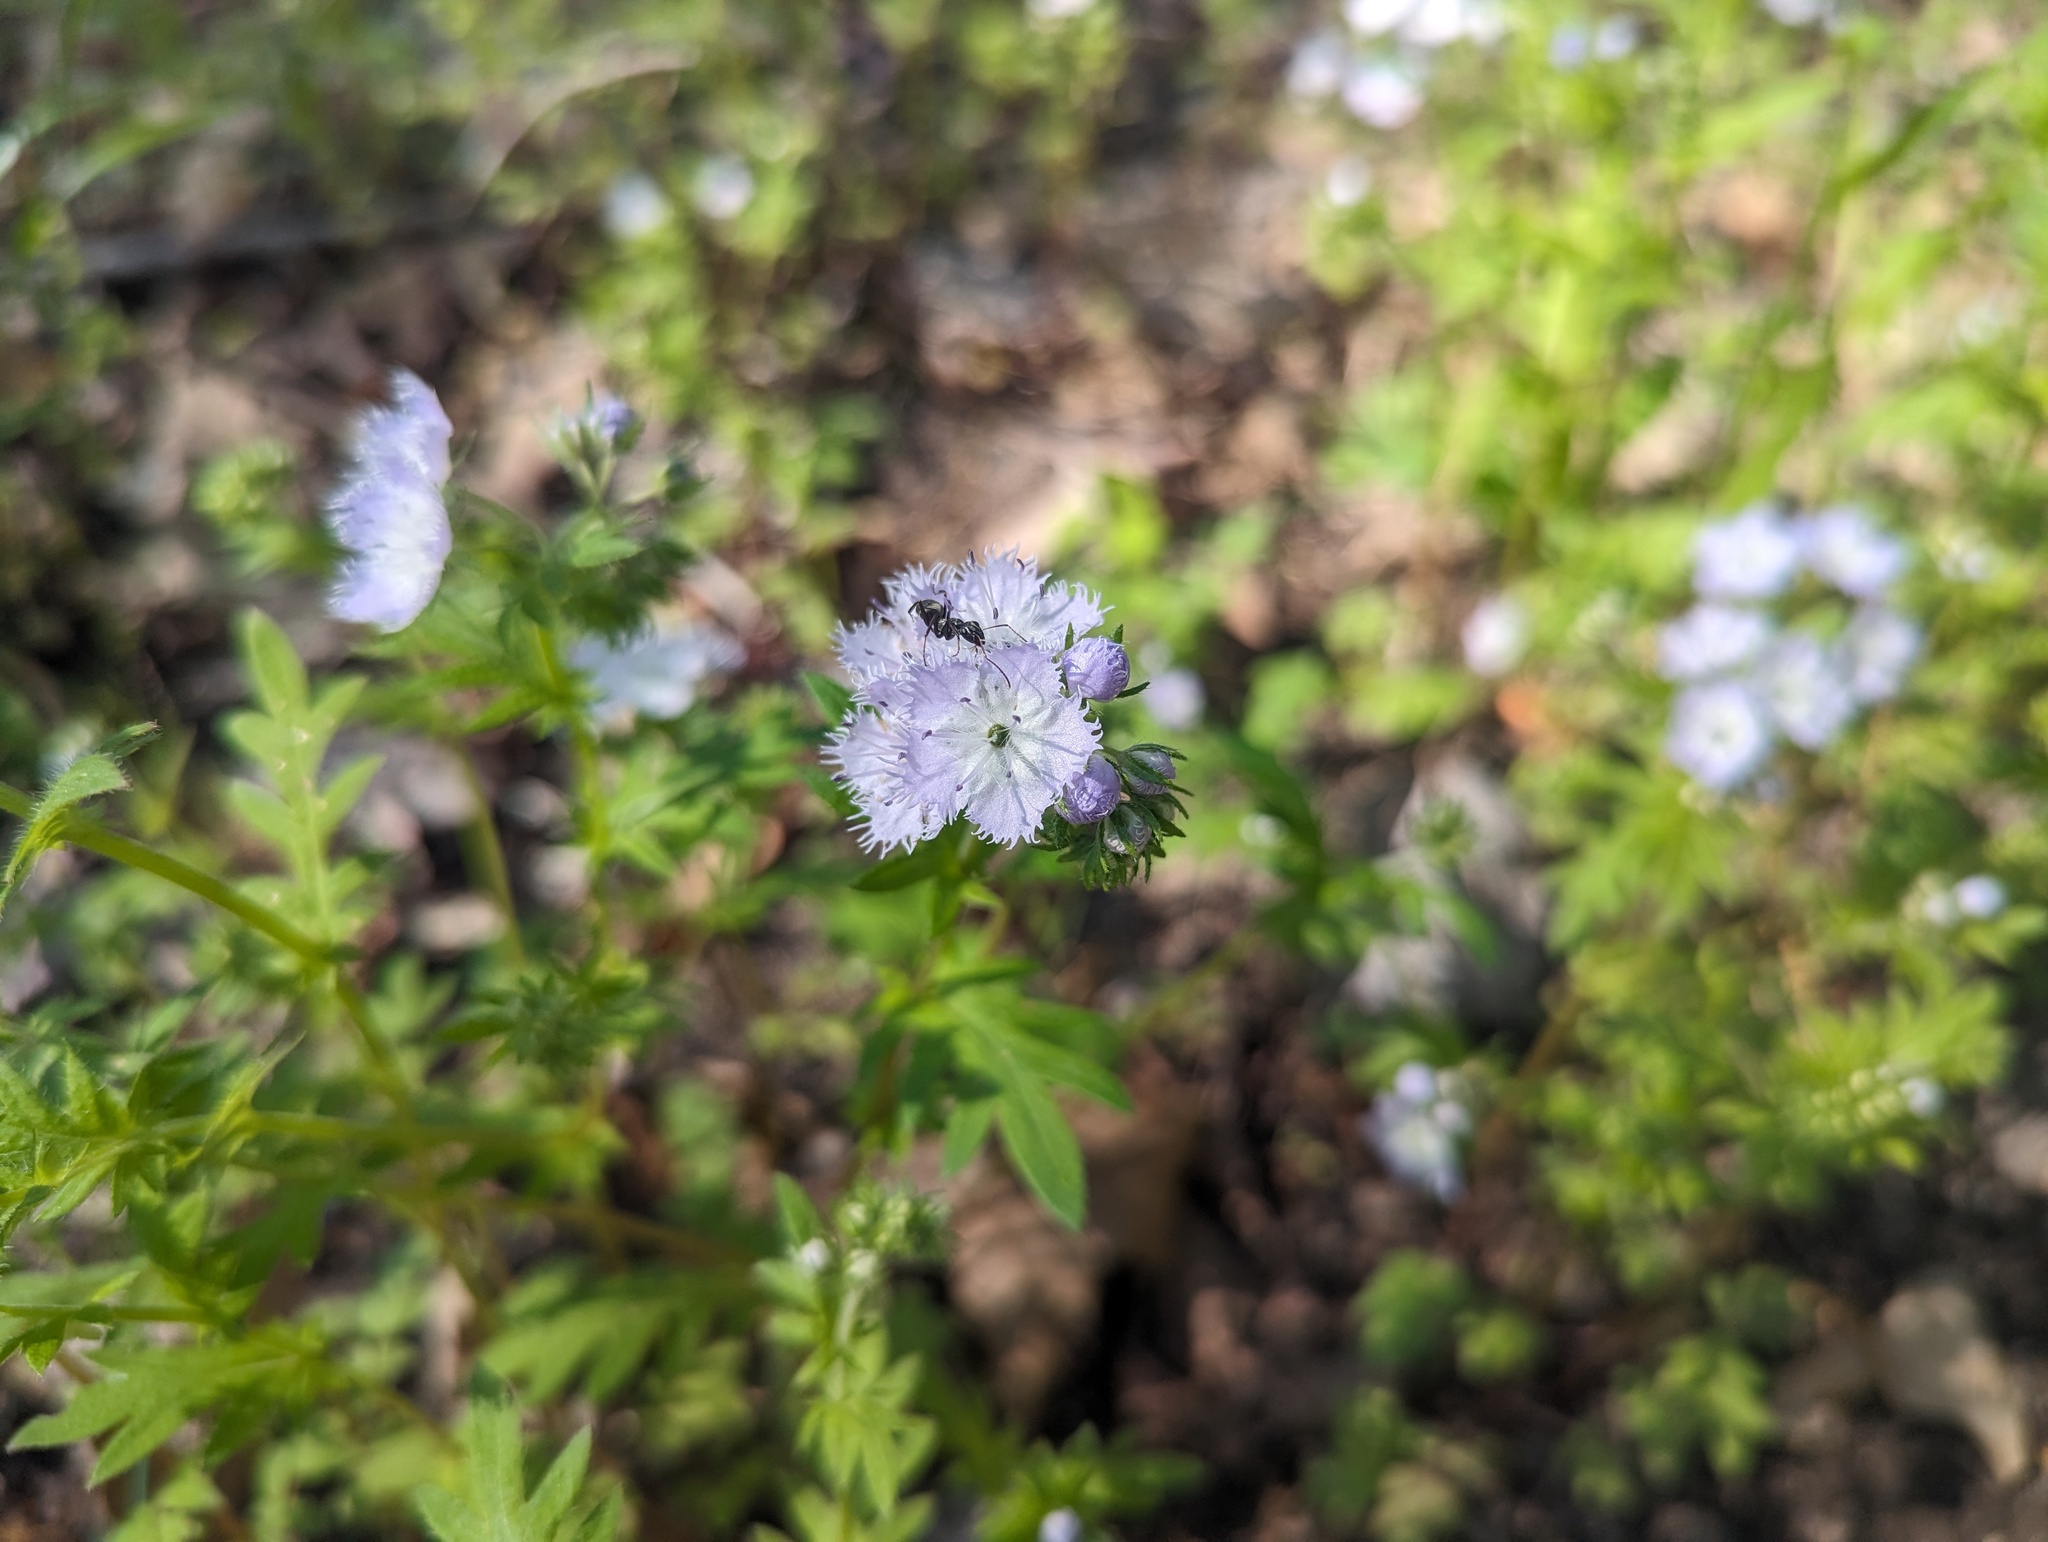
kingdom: Plantae
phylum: Tracheophyta
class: Magnoliopsida
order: Boraginales
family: Hydrophyllaceae
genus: Phacelia
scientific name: Phacelia purshii
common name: Miami-mist
